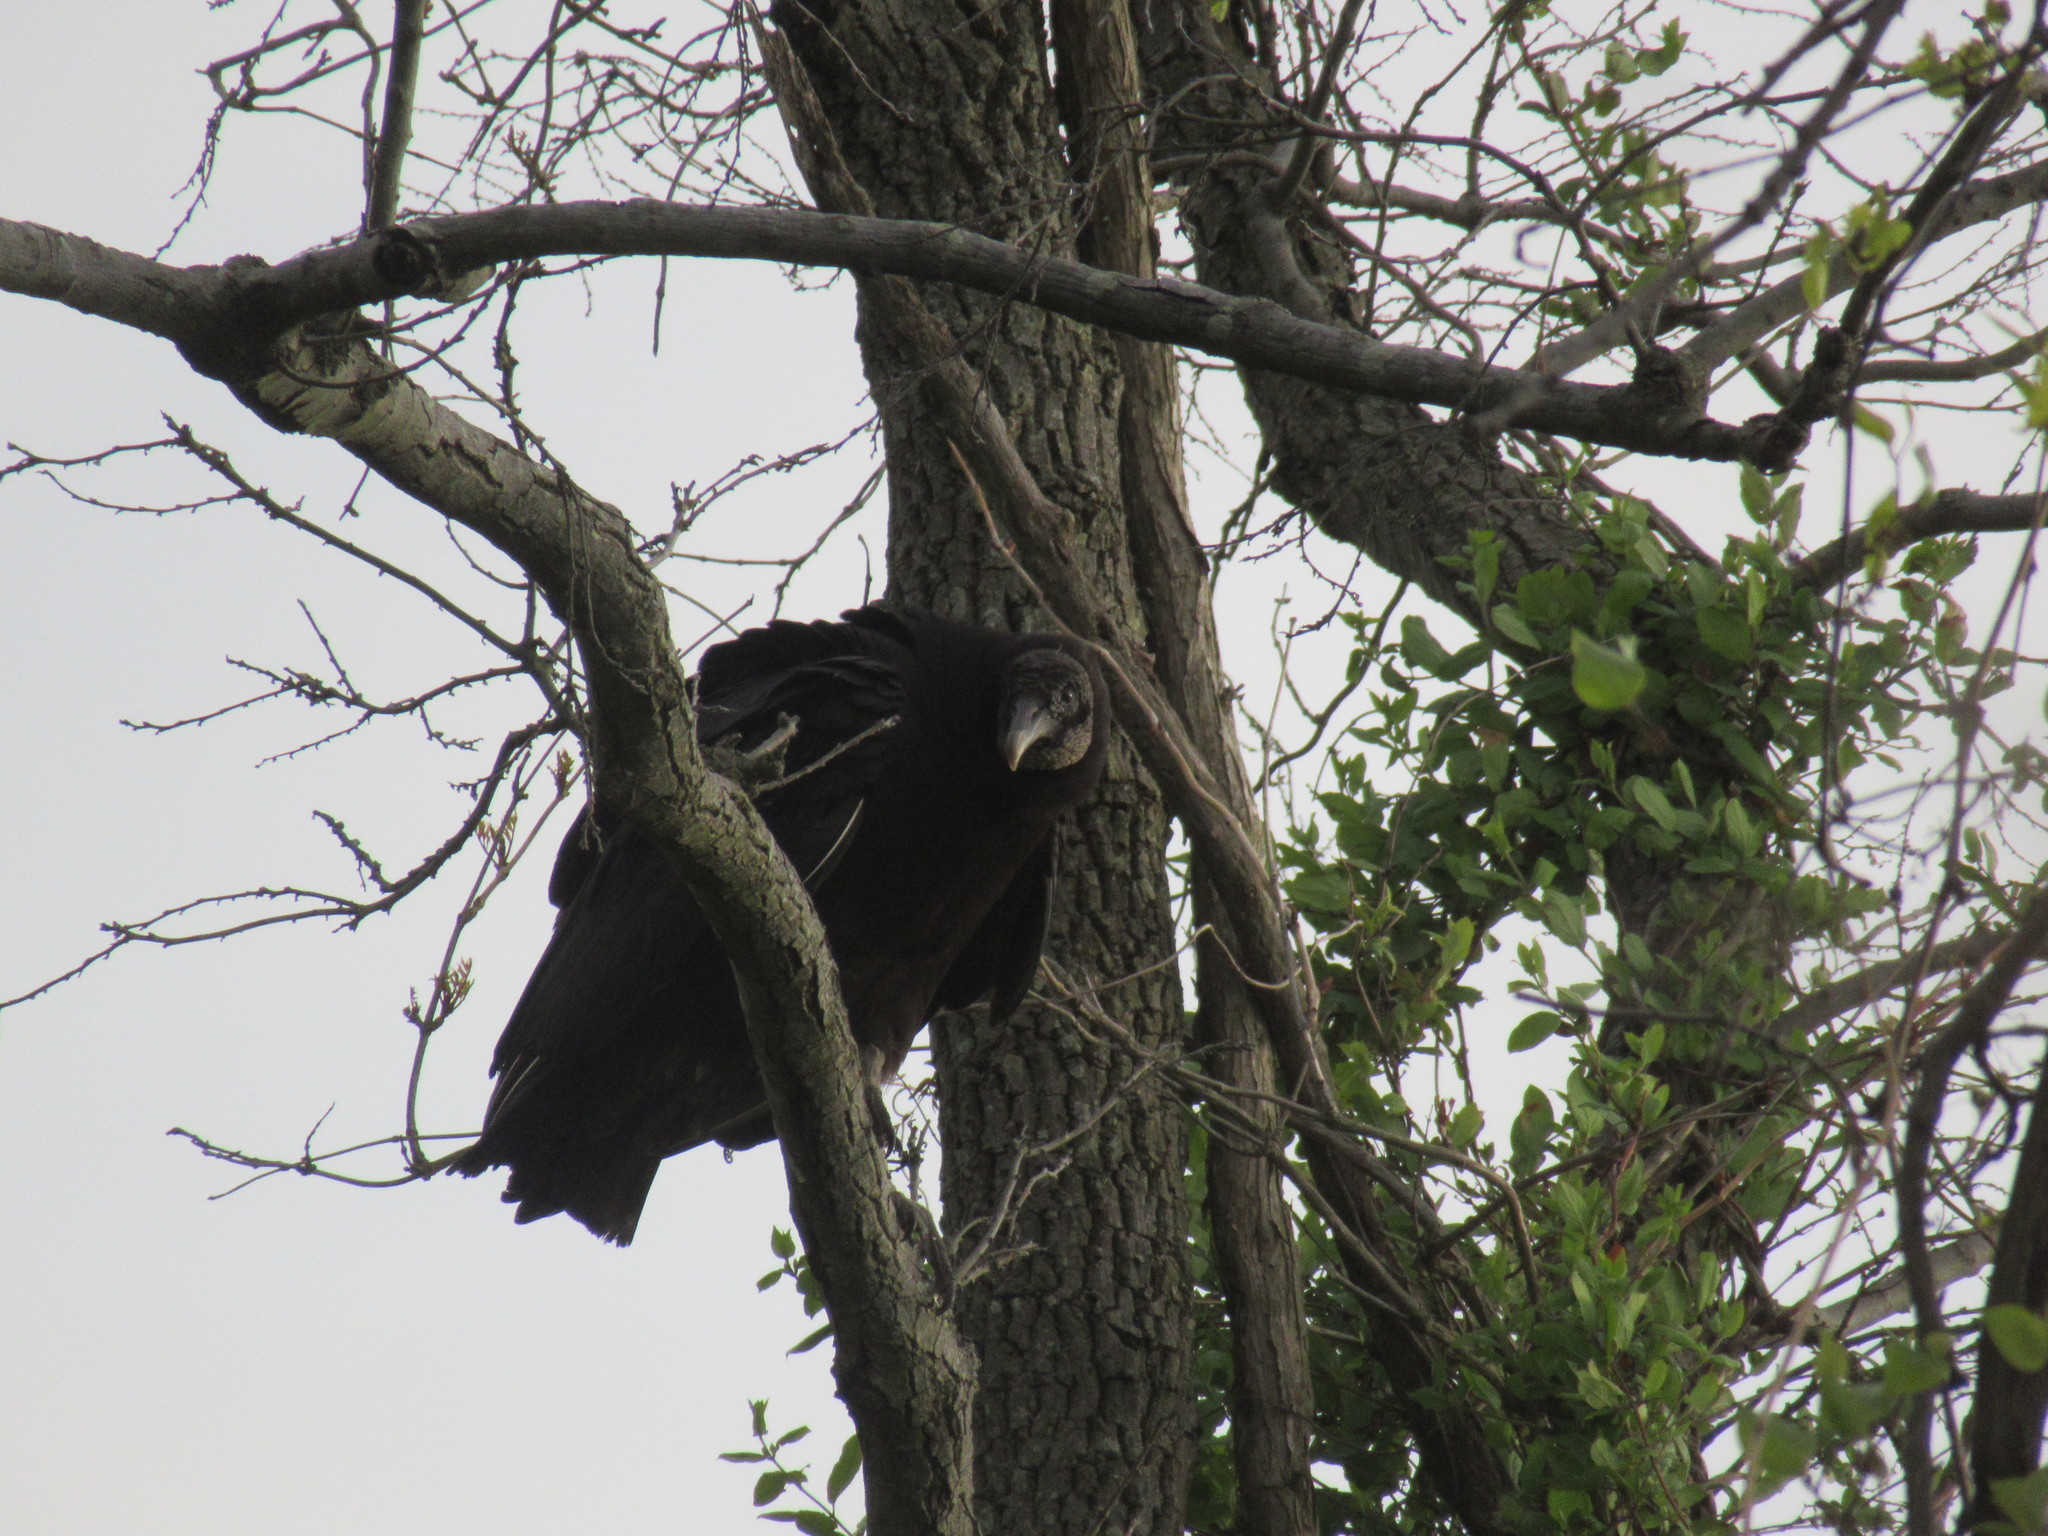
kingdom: Animalia
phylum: Chordata
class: Aves
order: Accipitriformes
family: Cathartidae
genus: Coragyps
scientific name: Coragyps atratus
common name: Black vulture
